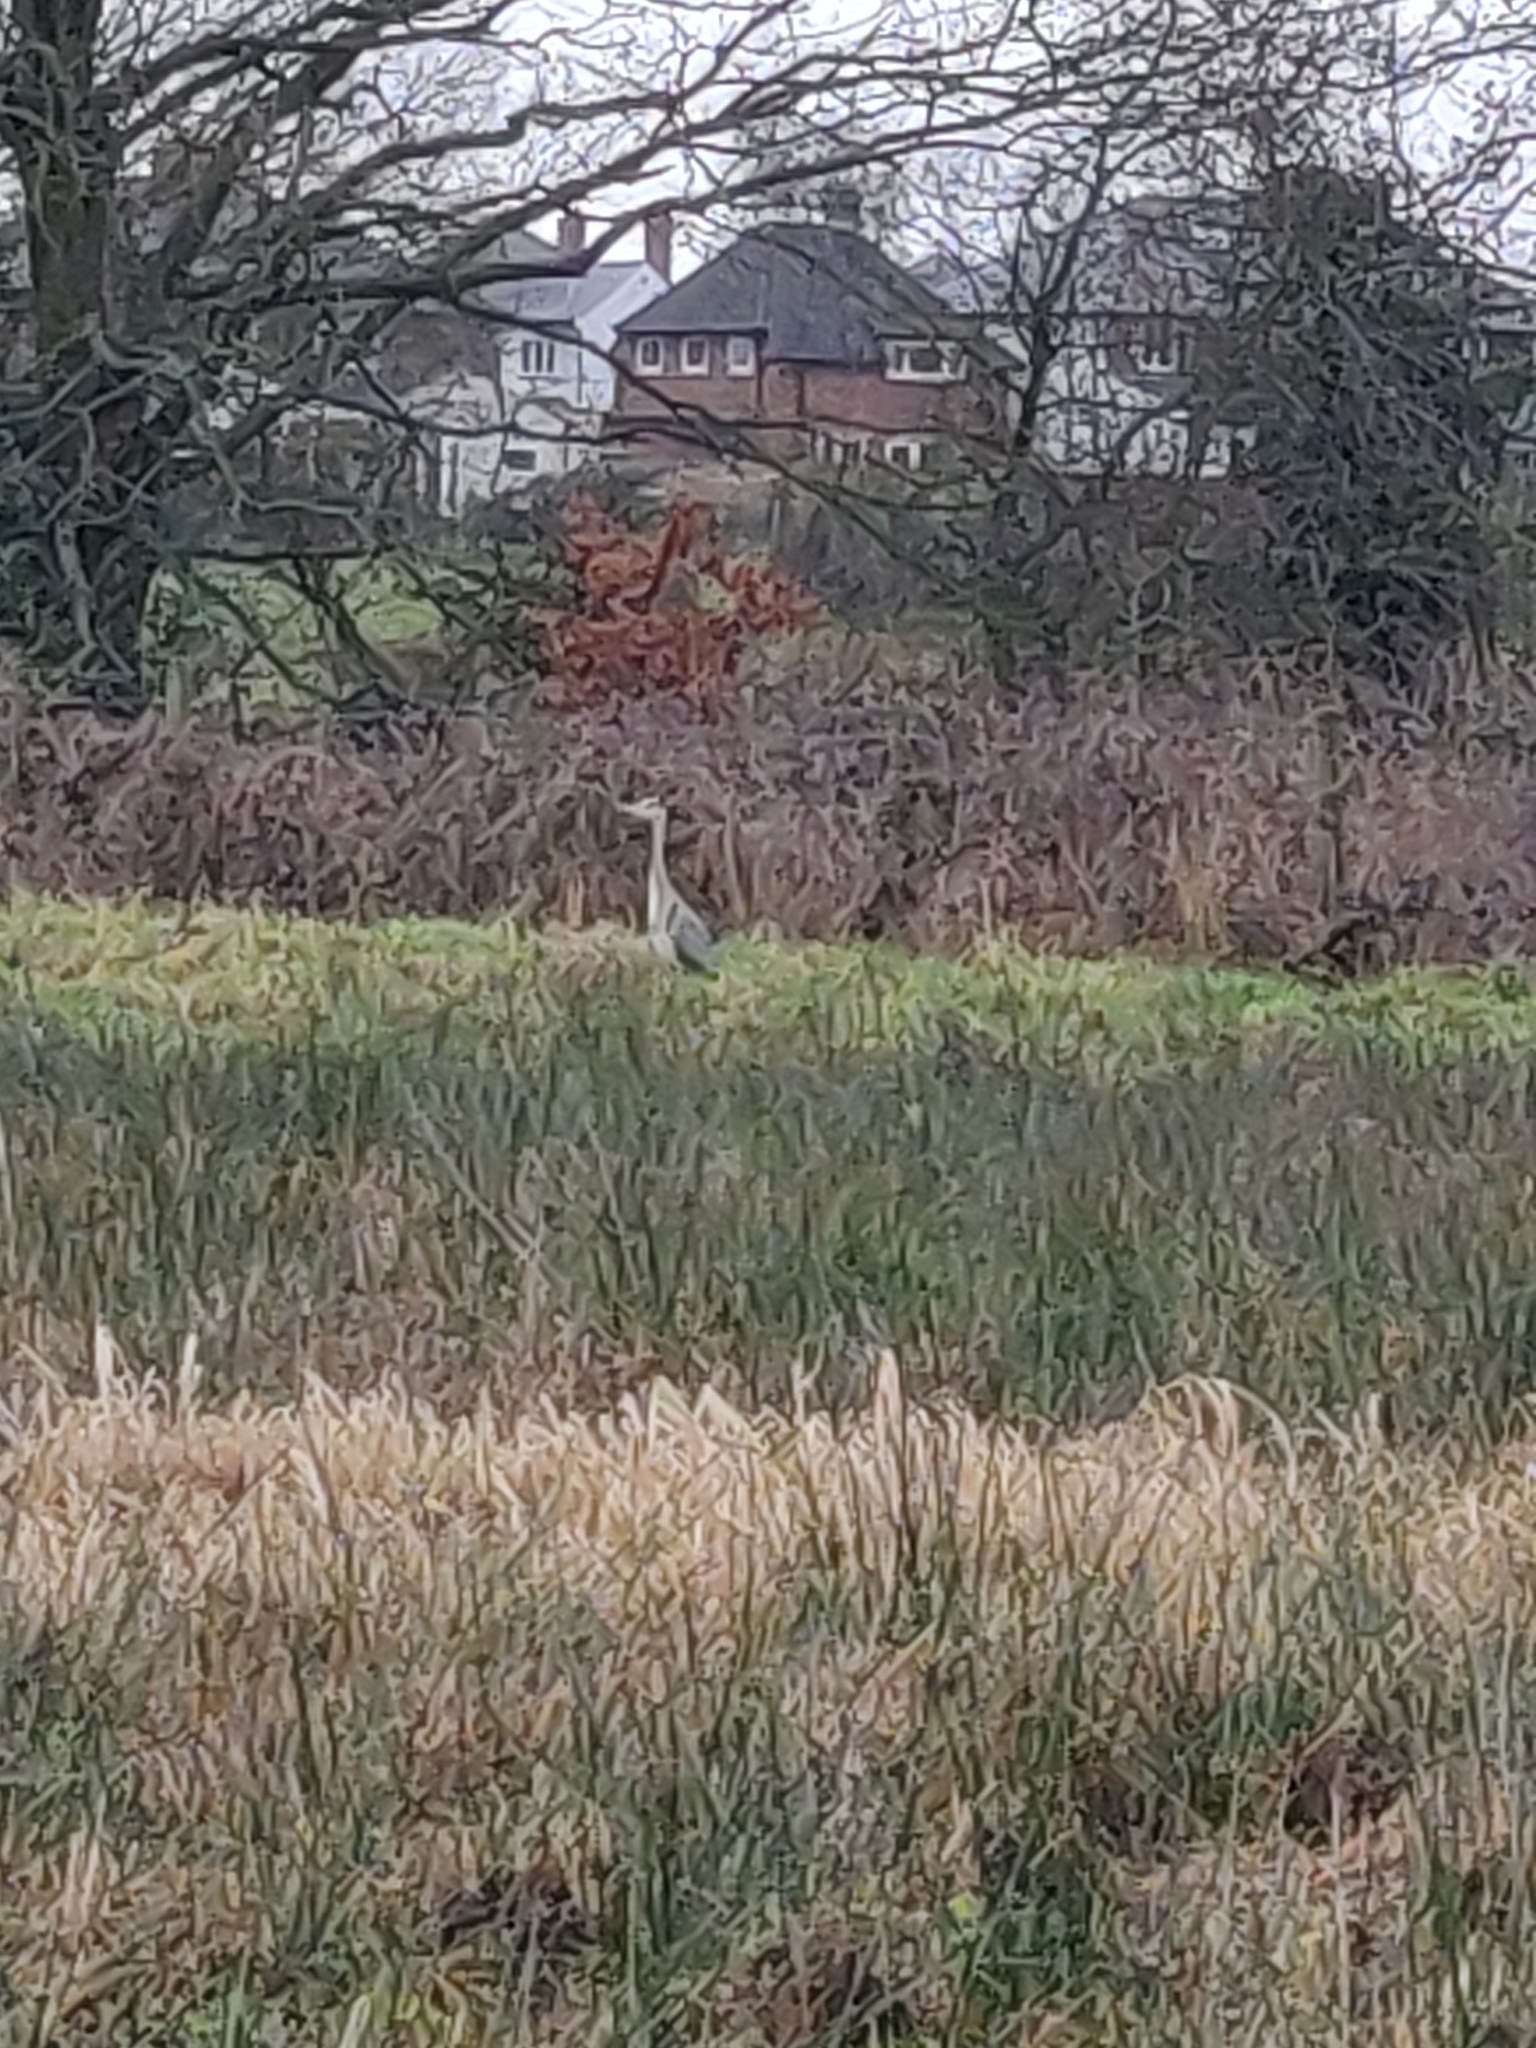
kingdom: Animalia
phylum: Chordata
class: Aves
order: Pelecaniformes
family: Ardeidae
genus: Ardea
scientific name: Ardea cinerea
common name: Grey heron
